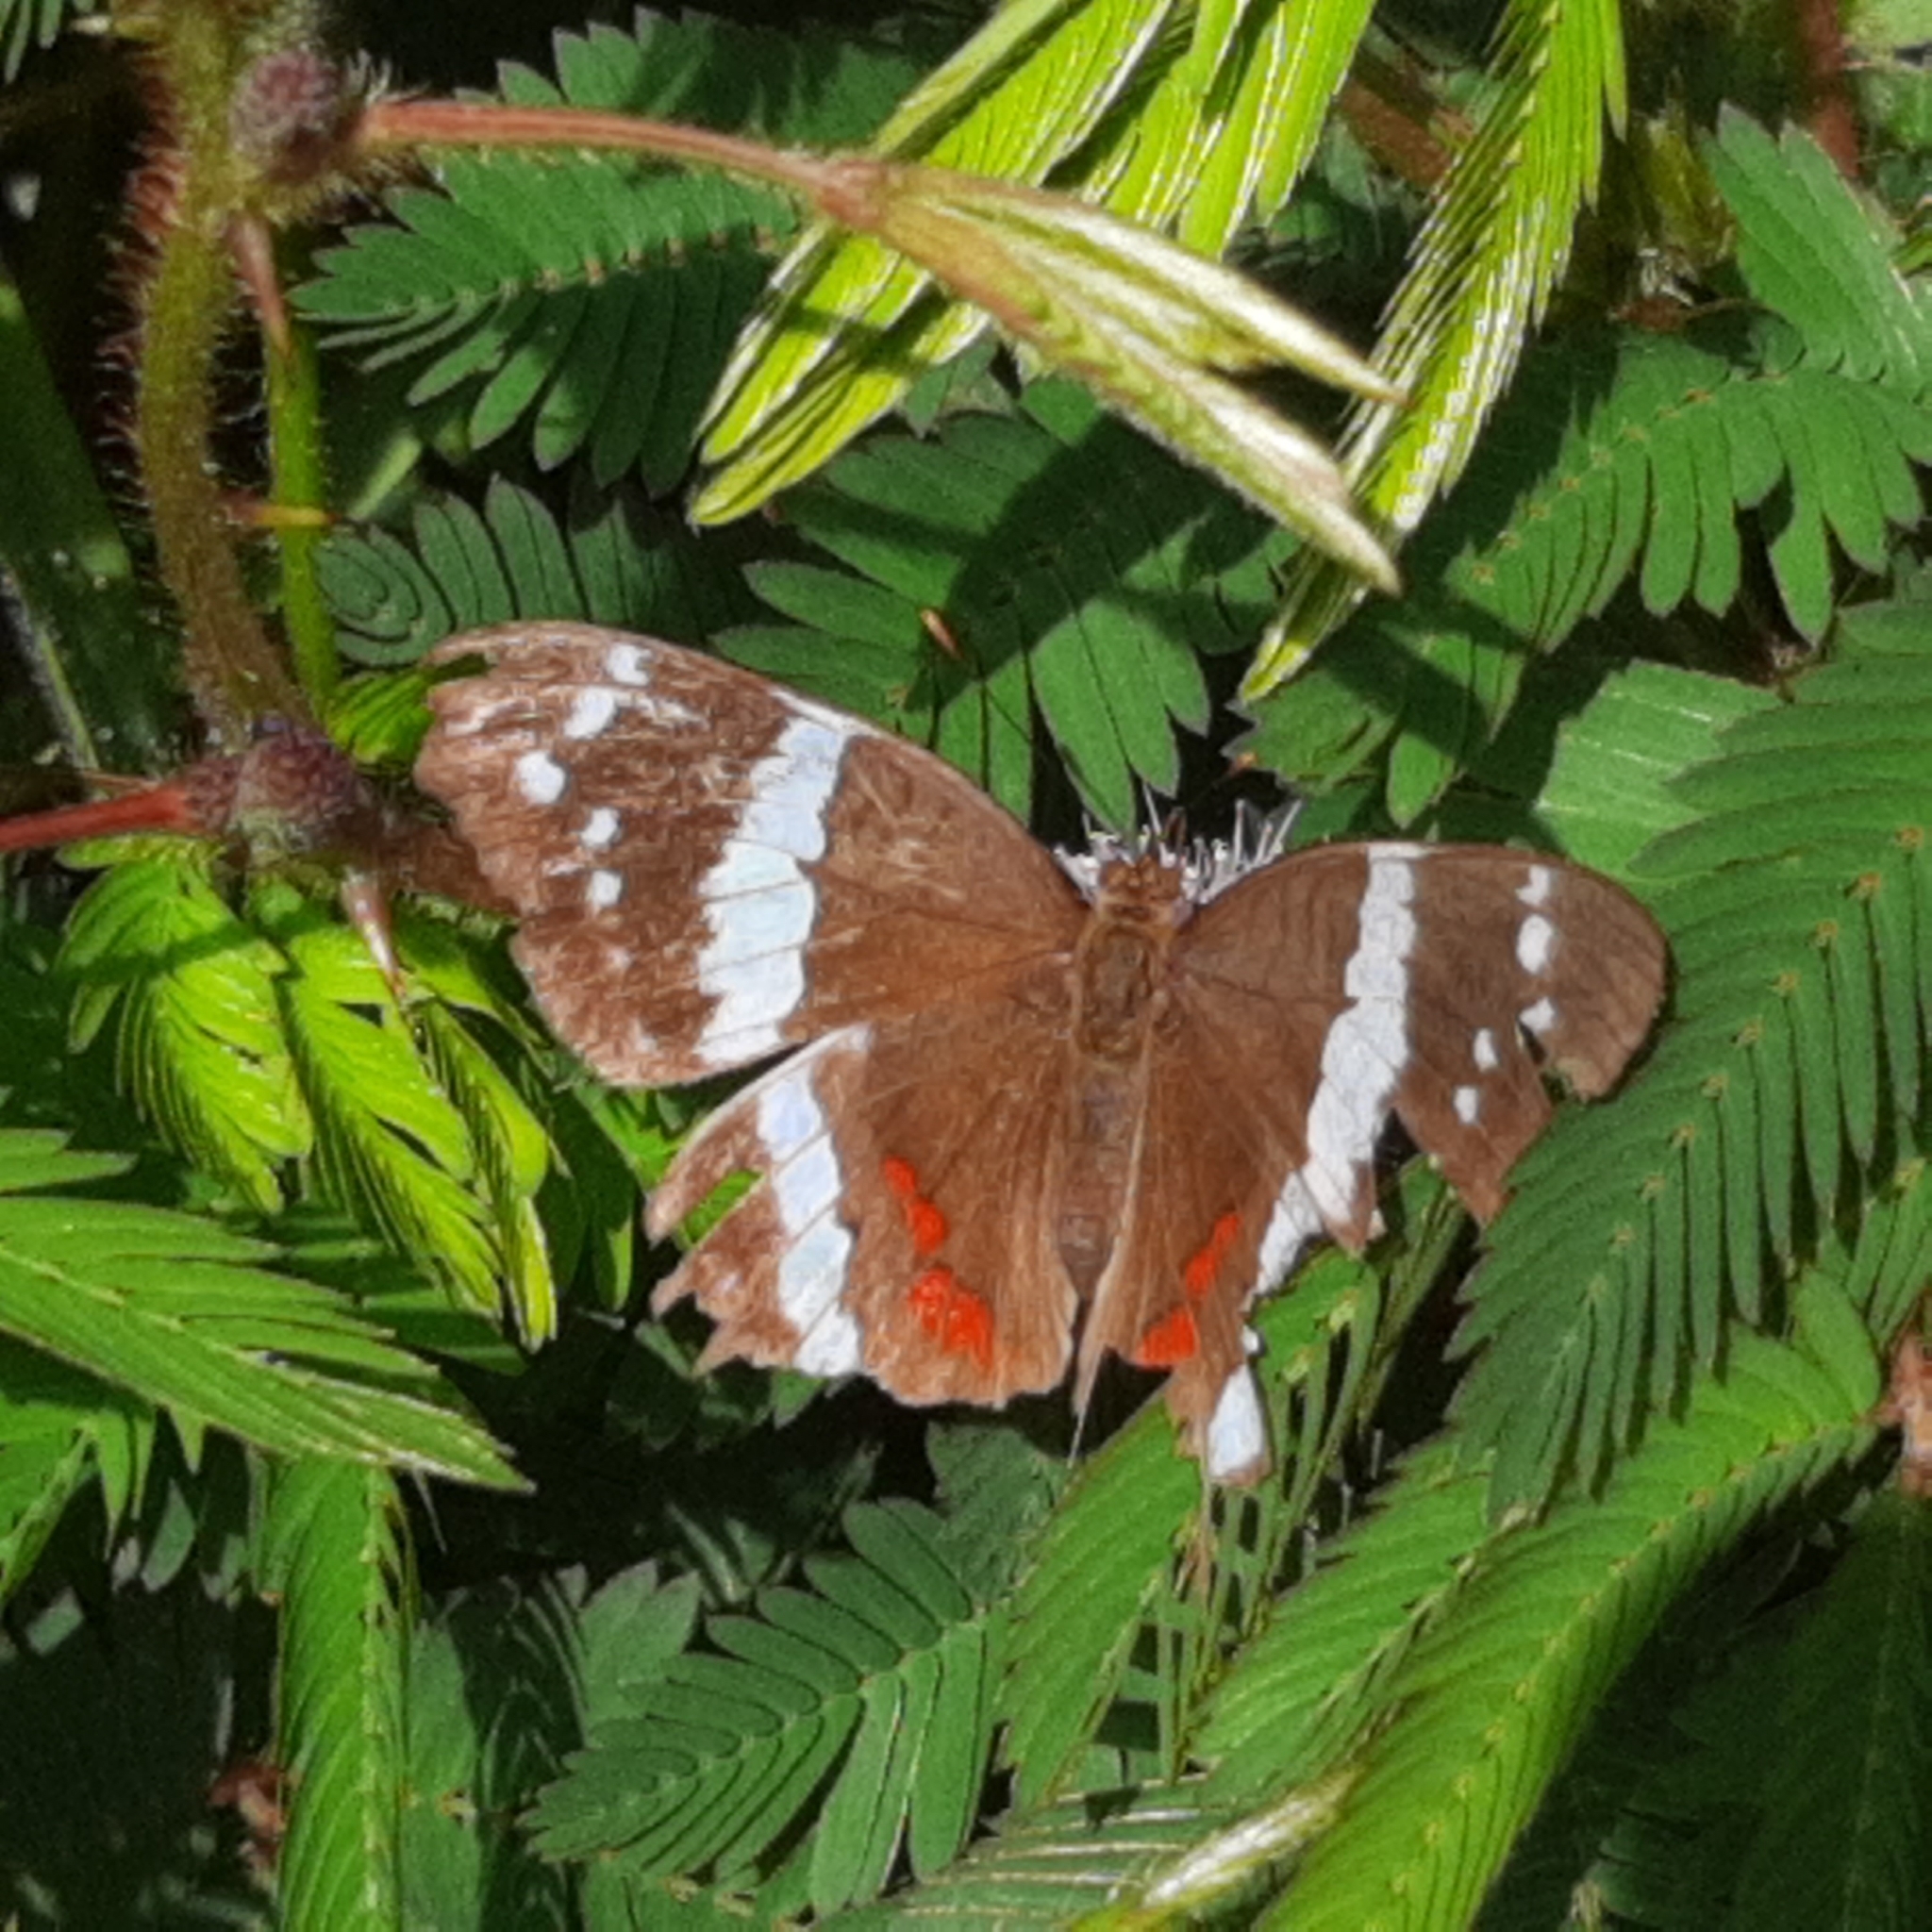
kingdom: Animalia
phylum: Arthropoda
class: Insecta
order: Lepidoptera
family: Nymphalidae
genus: Anartia
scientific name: Anartia fatima
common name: Banded peacock
